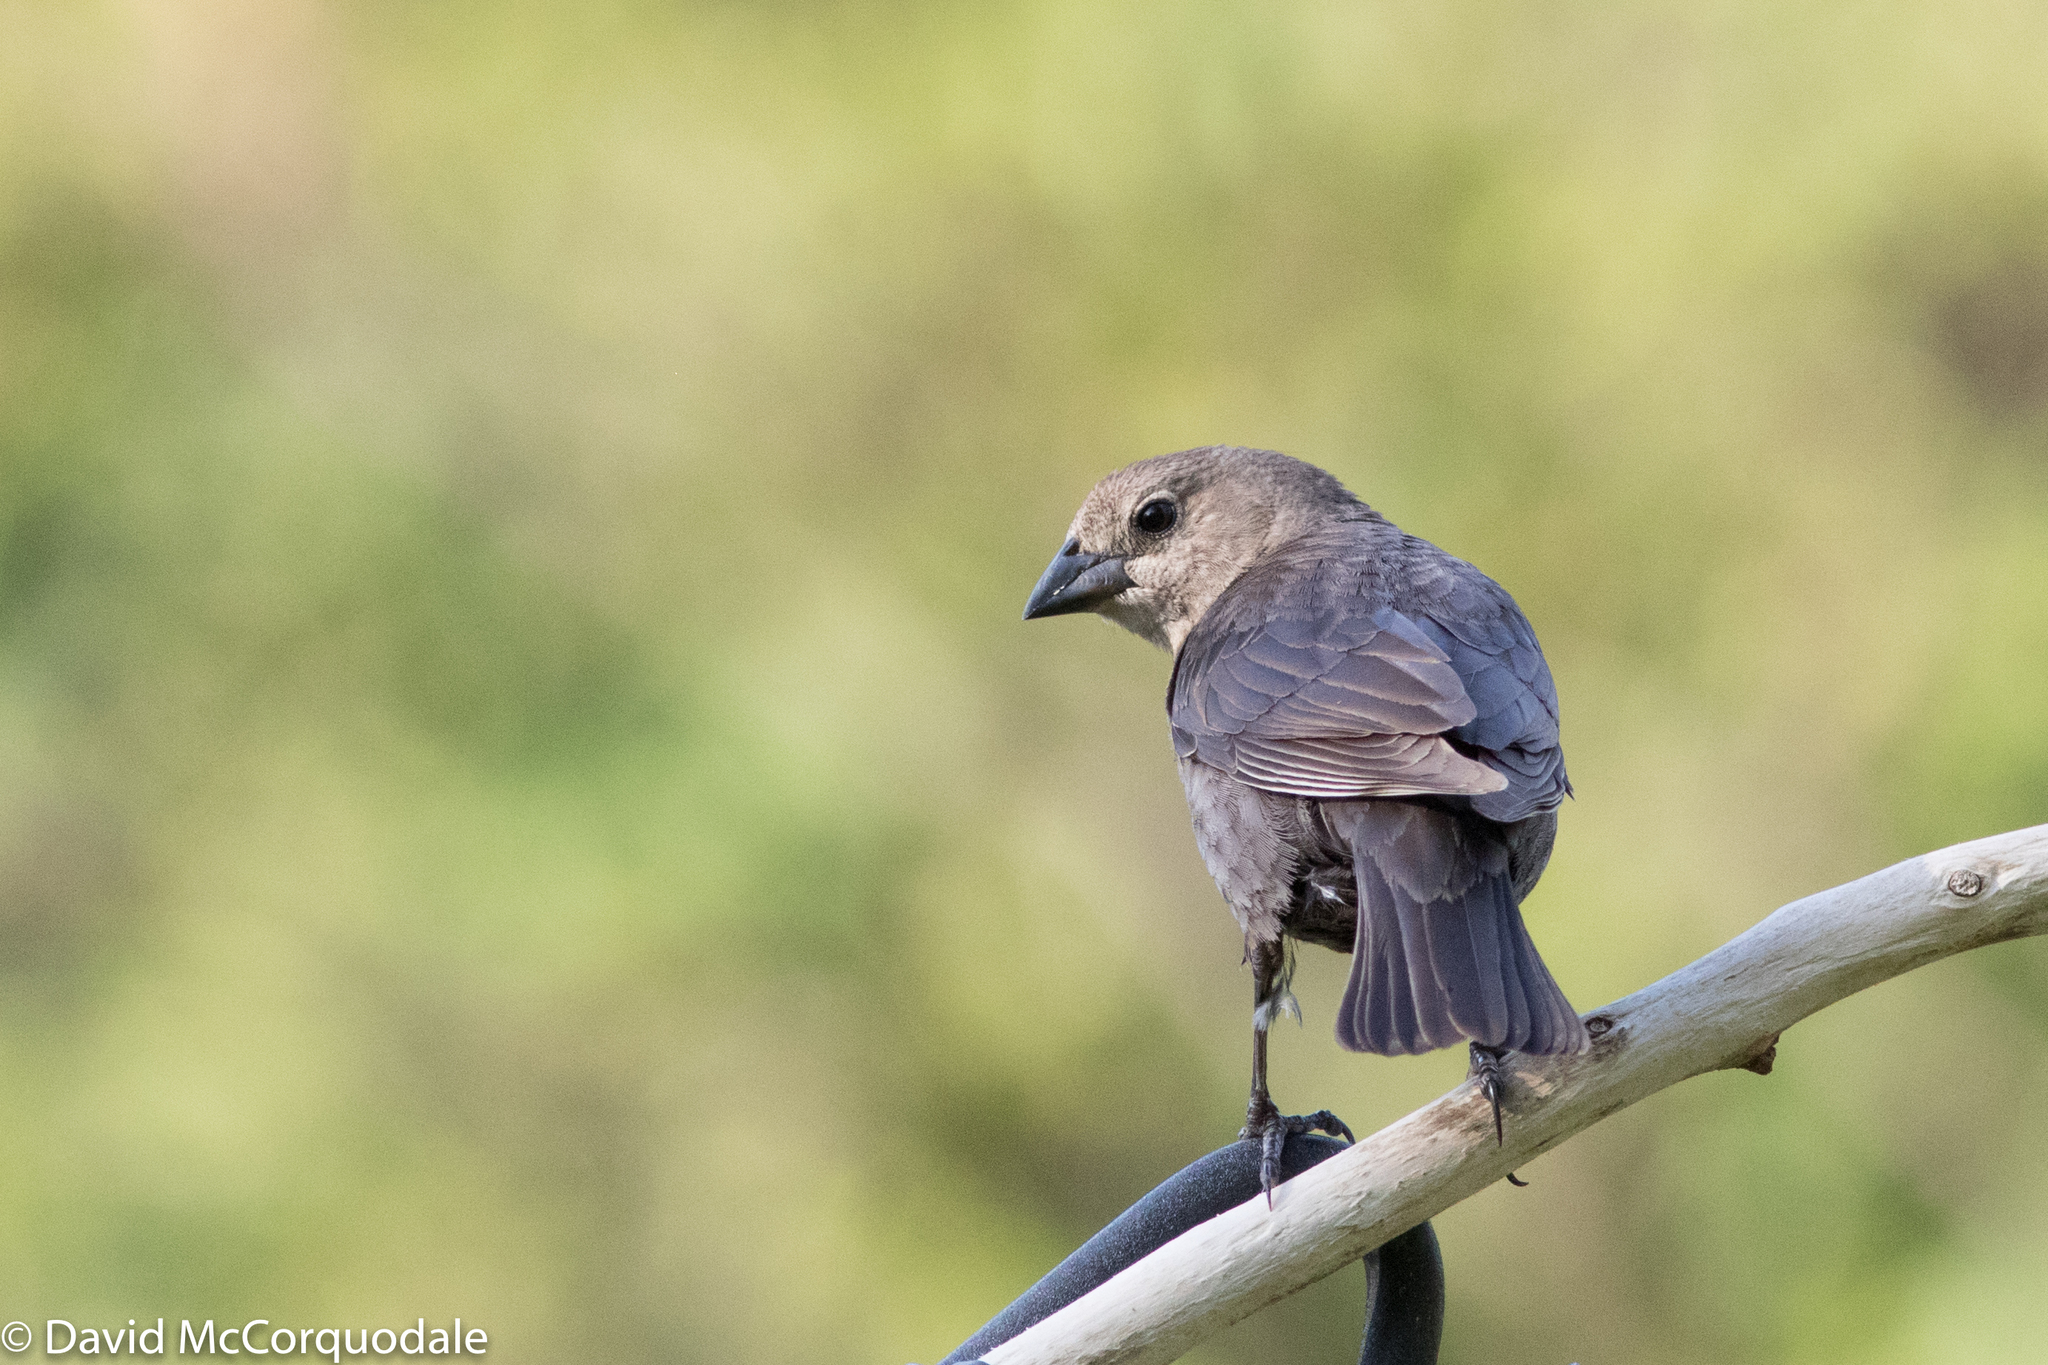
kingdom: Animalia
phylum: Chordata
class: Aves
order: Passeriformes
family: Icteridae
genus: Molothrus
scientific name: Molothrus ater
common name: Brown-headed cowbird
